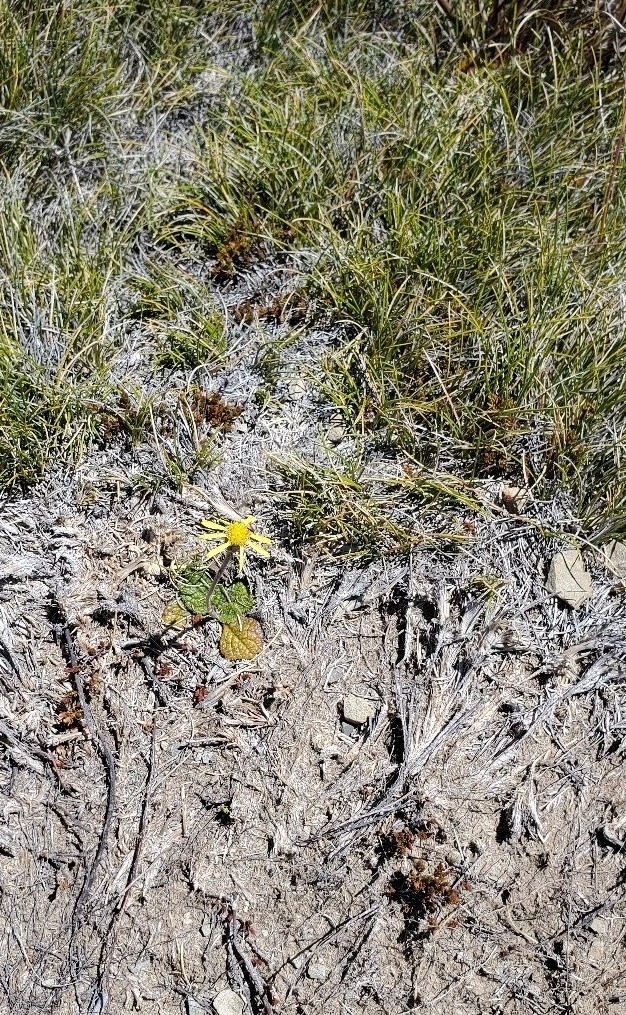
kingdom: Plantae
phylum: Tracheophyta
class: Magnoliopsida
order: Asterales
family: Asteraceae
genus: Brachyglottis
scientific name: Brachyglottis bellidioides
